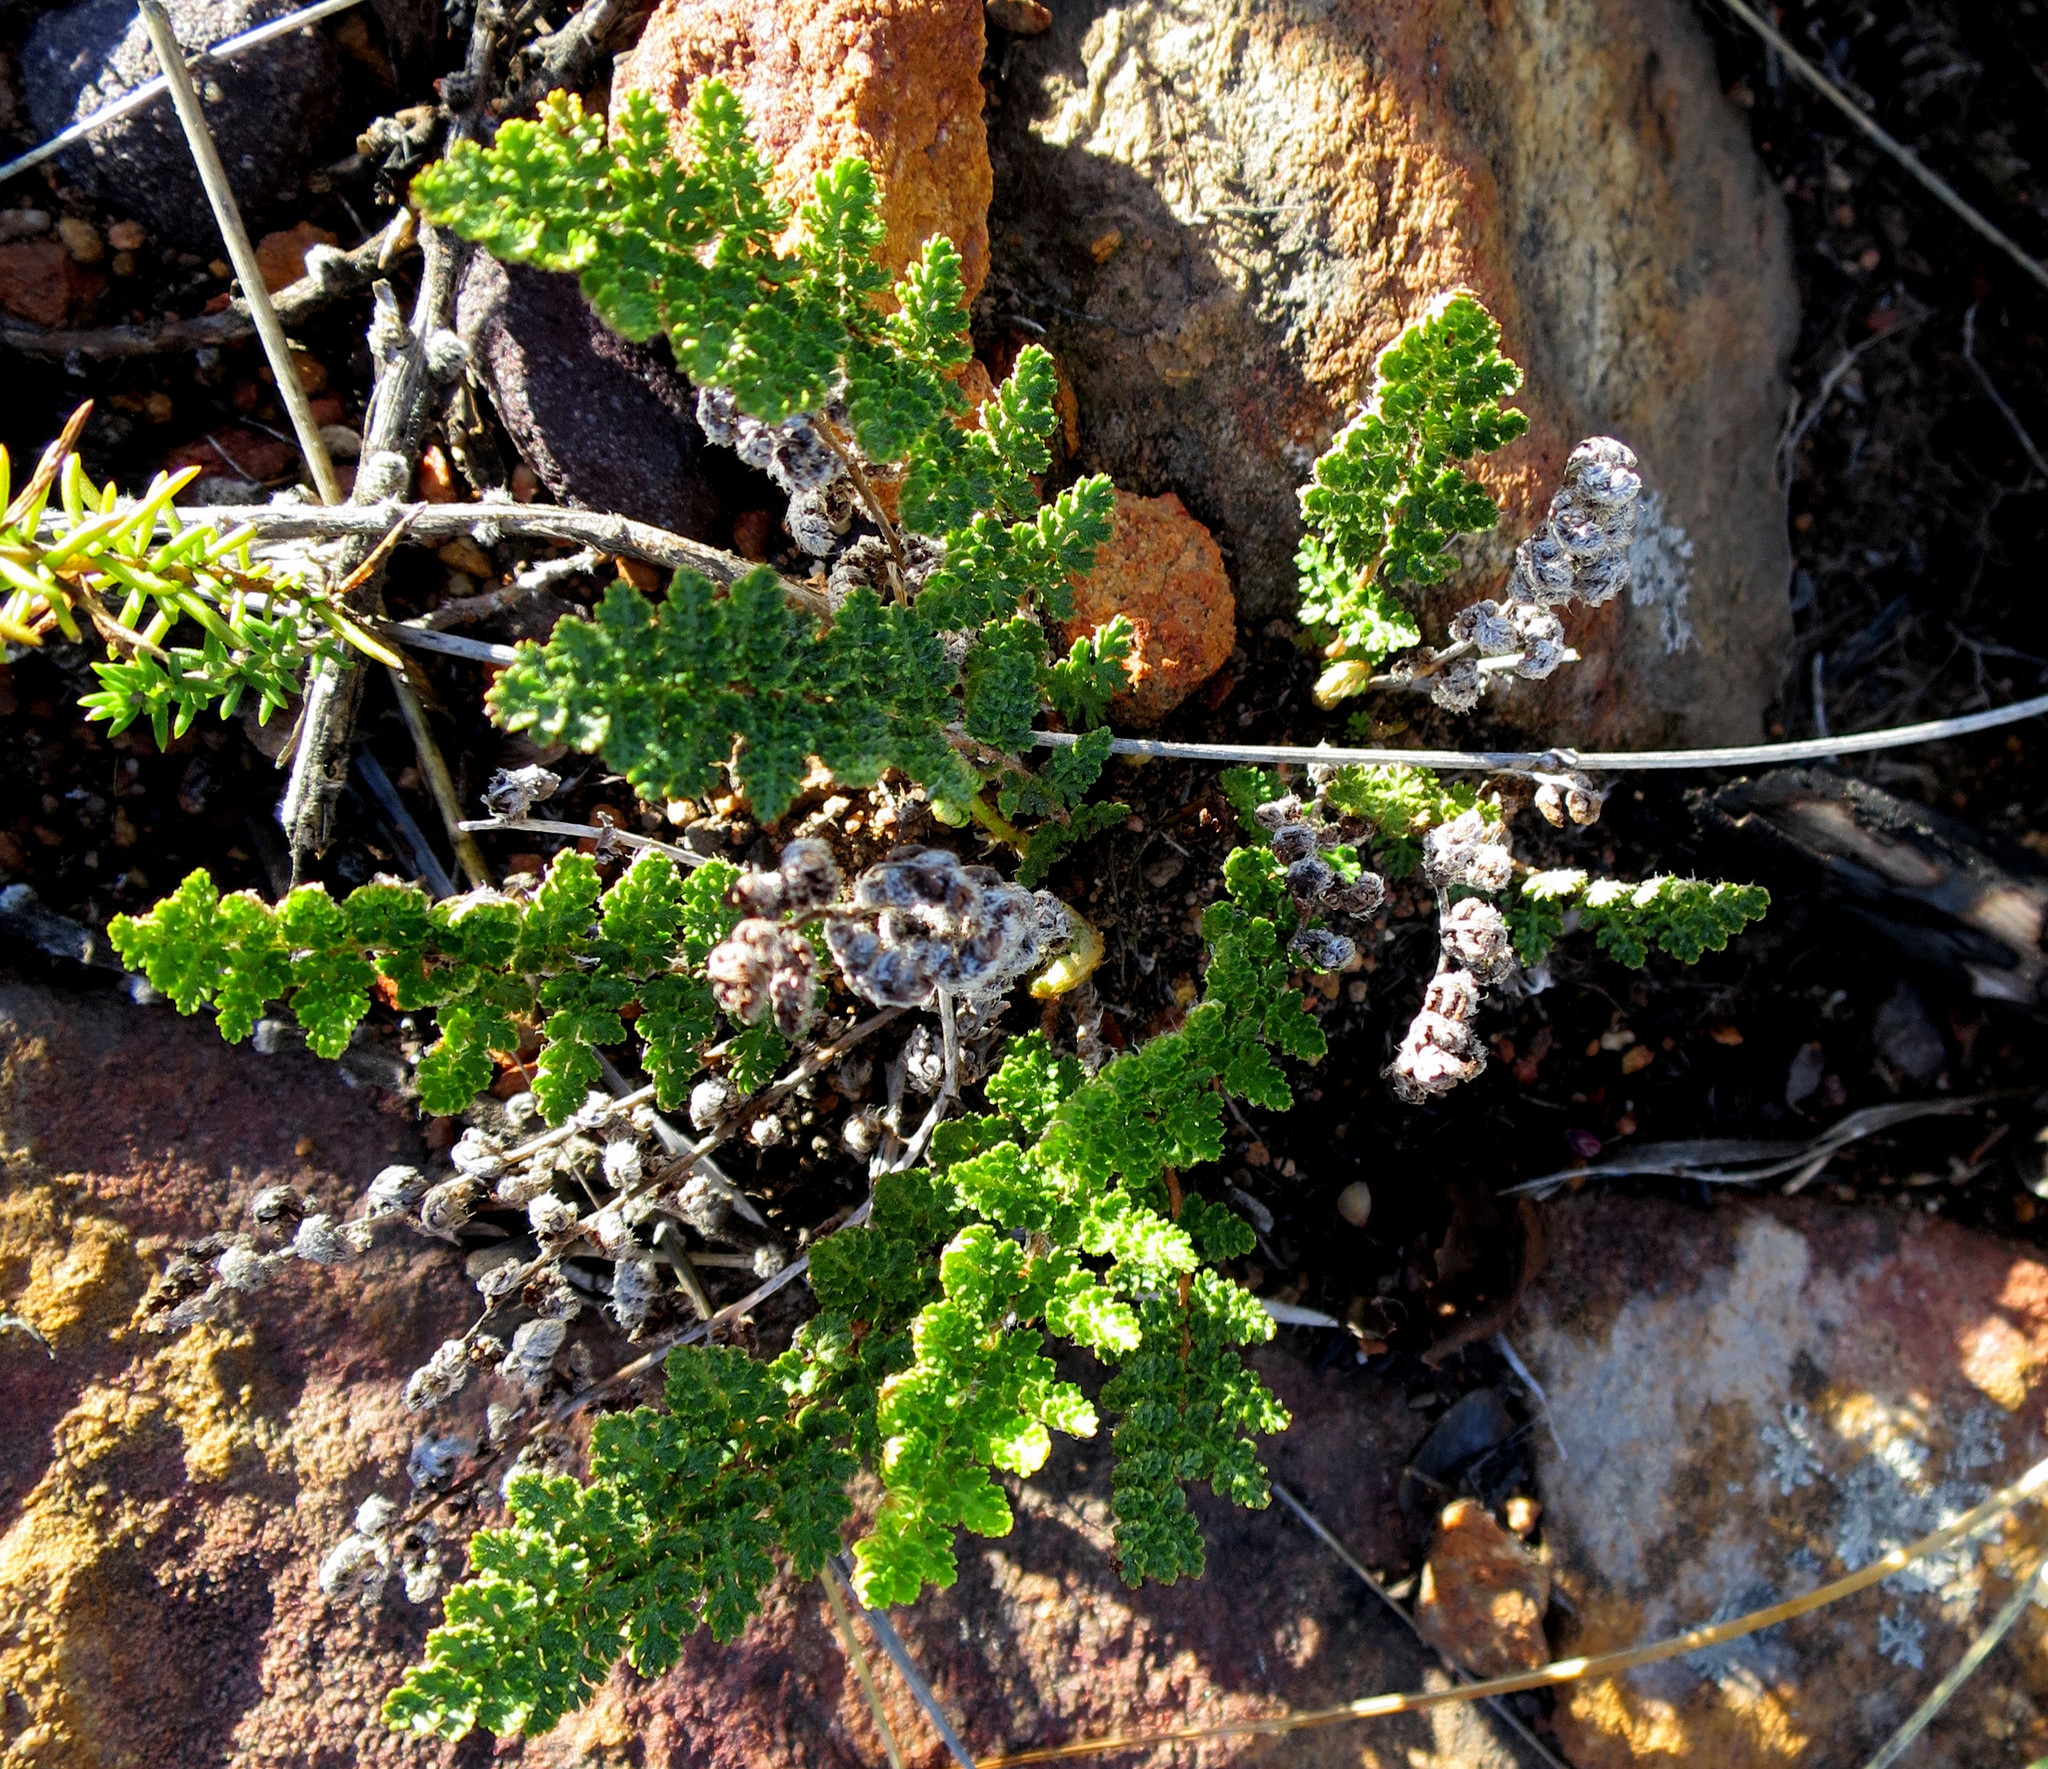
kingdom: Plantae
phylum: Tracheophyta
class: Polypodiopsida
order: Schizaeales
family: Anemiaceae
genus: Anemia
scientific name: Anemia caffrorum
